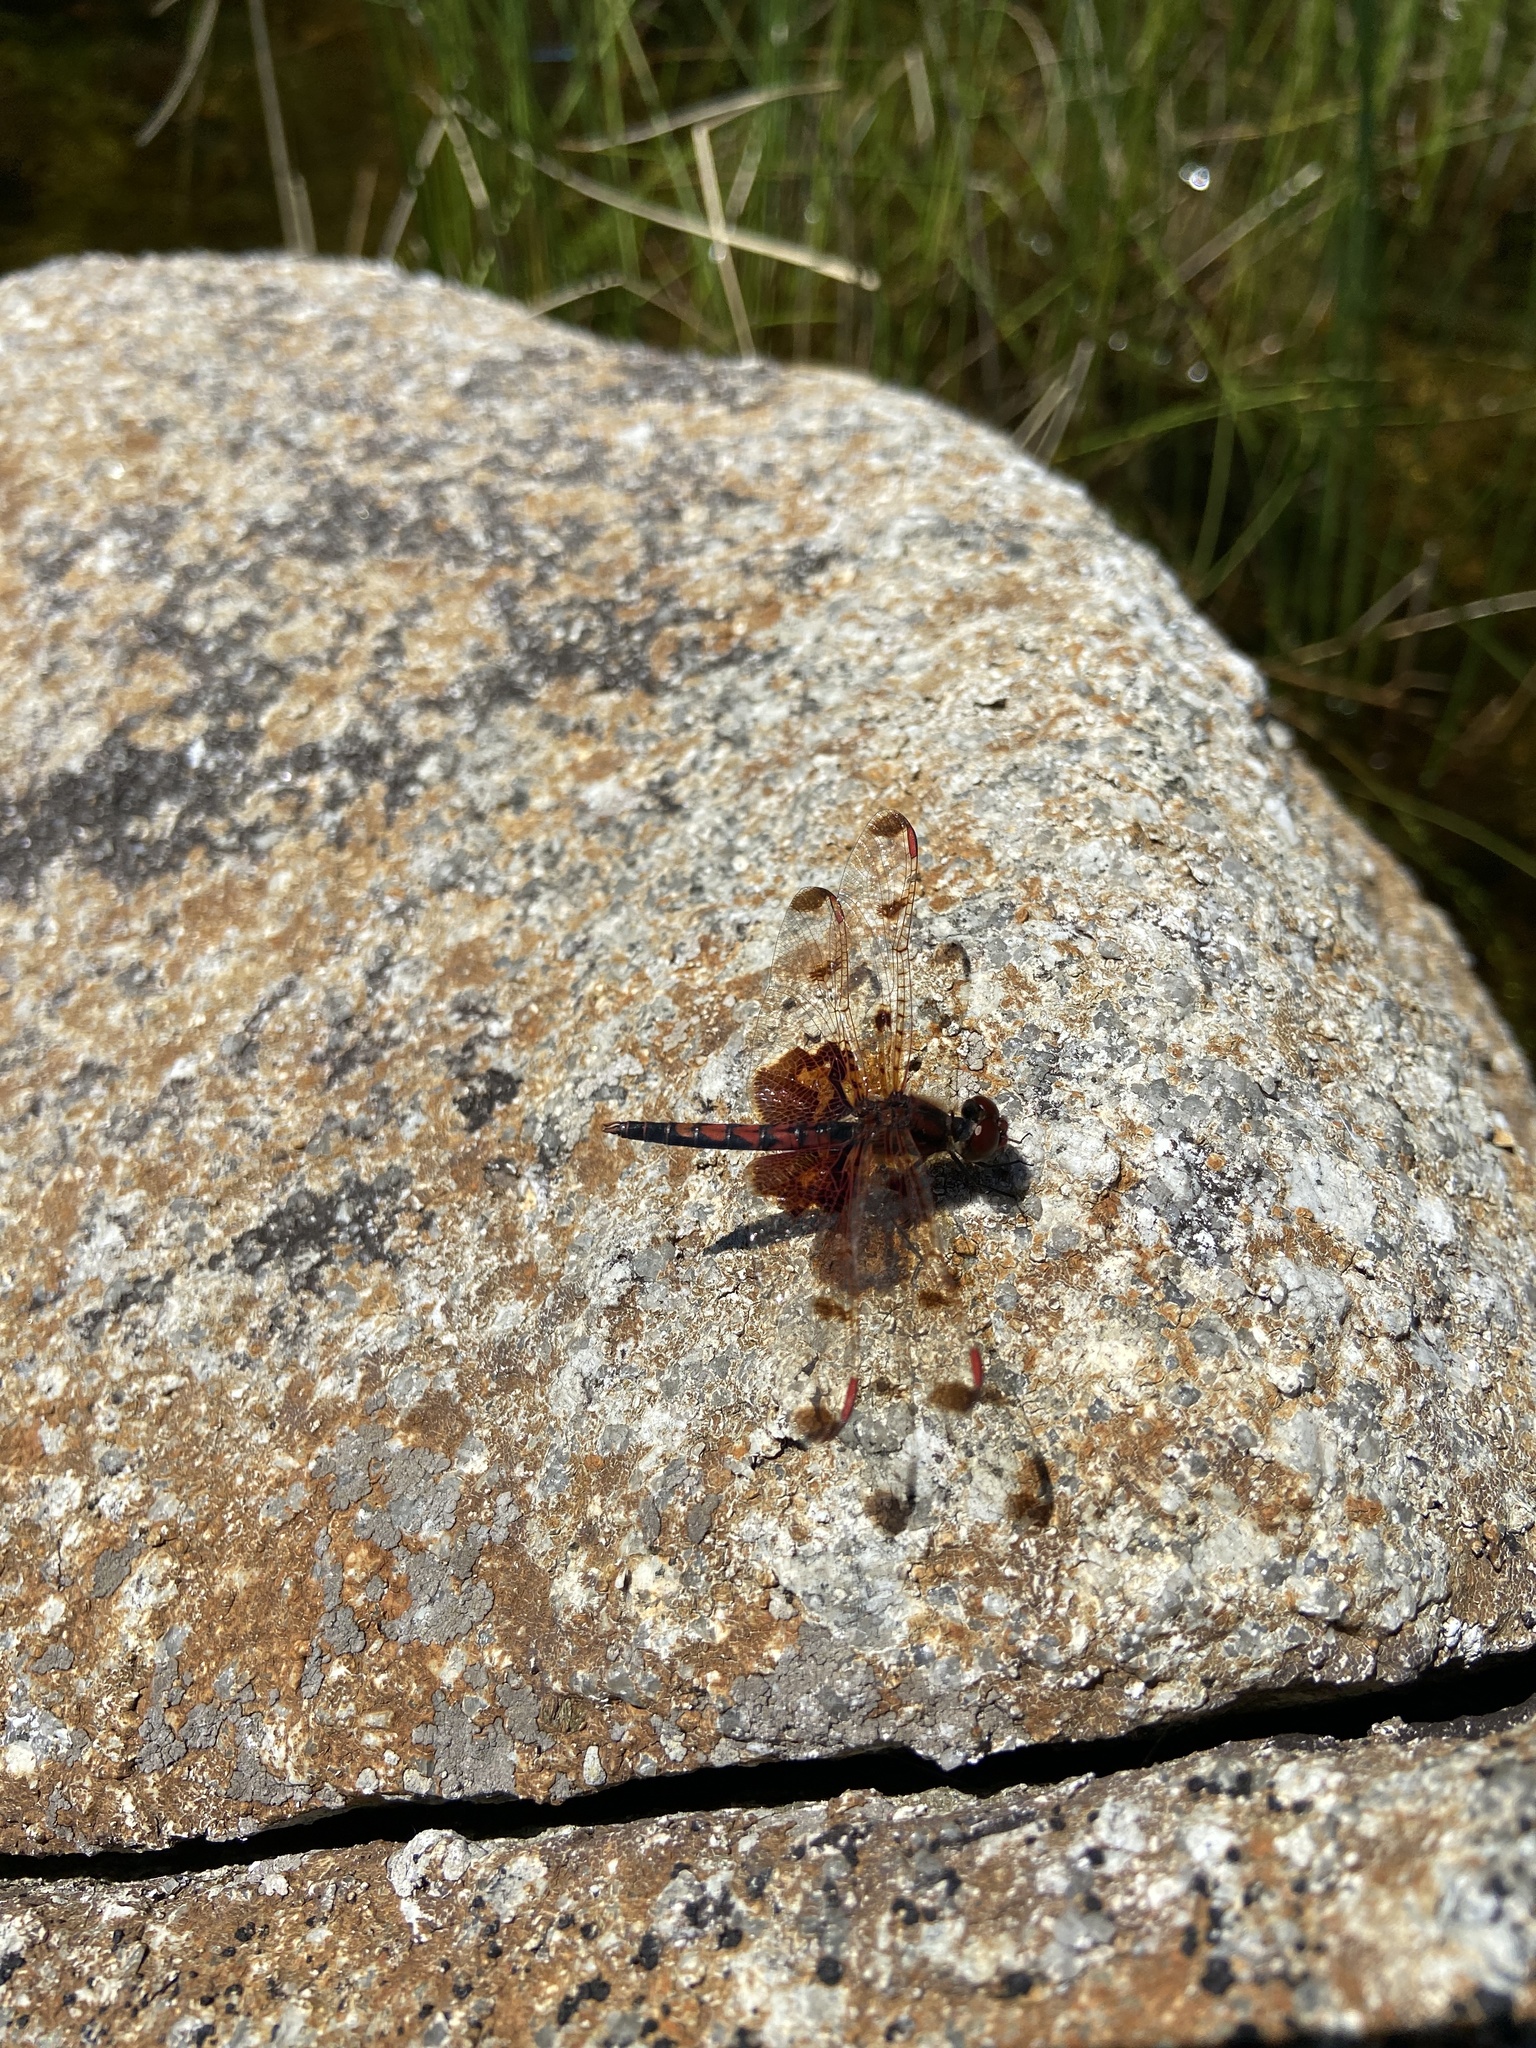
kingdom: Animalia
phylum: Arthropoda
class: Insecta
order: Odonata
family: Libellulidae
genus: Celithemis
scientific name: Celithemis elisa
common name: Calico pennant
